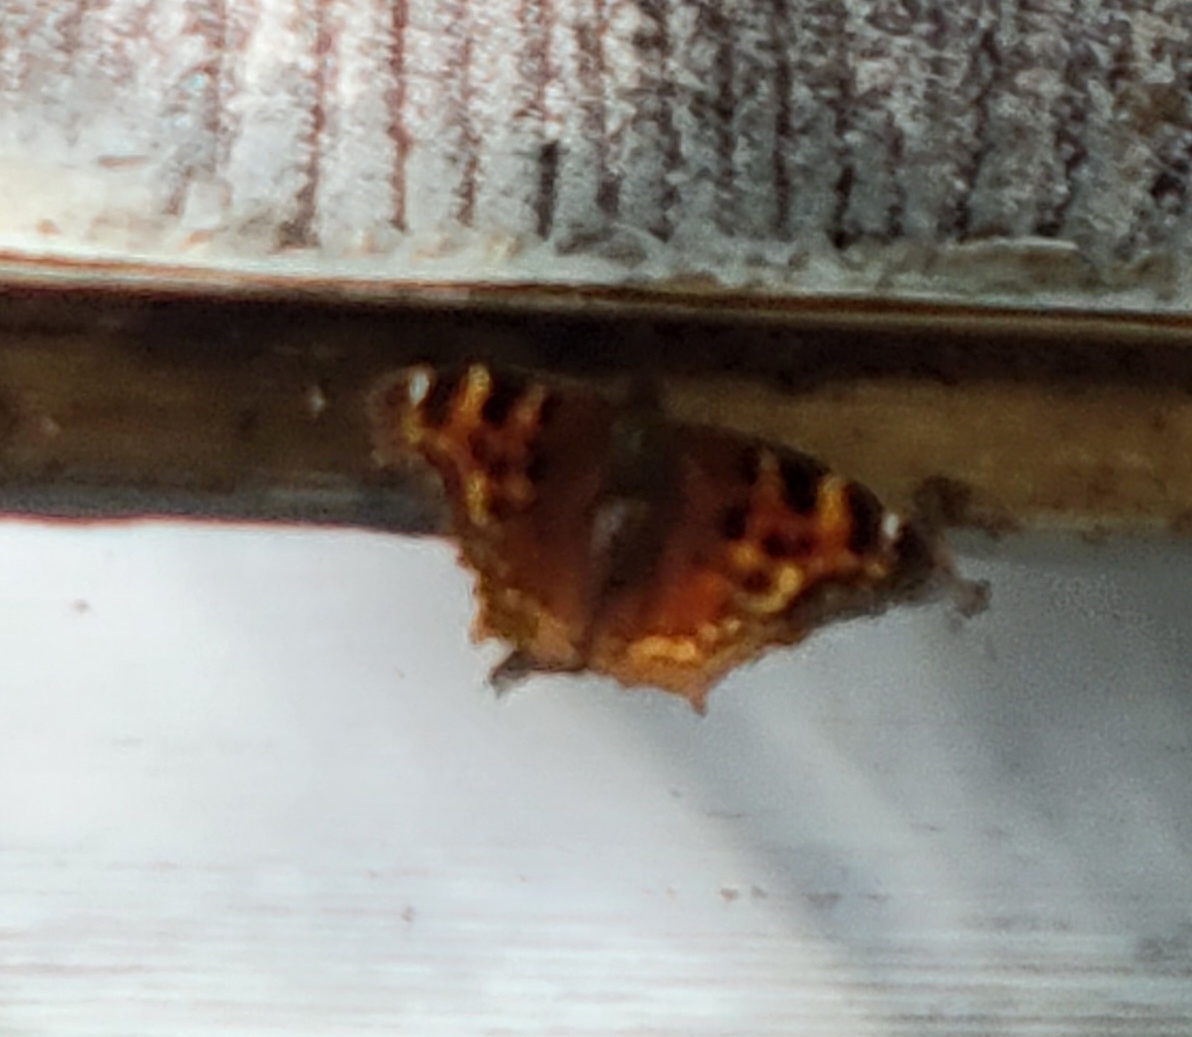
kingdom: Animalia
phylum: Arthropoda
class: Insecta
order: Lepidoptera
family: Nymphalidae
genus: Polygonia
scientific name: Polygonia vaualbum
